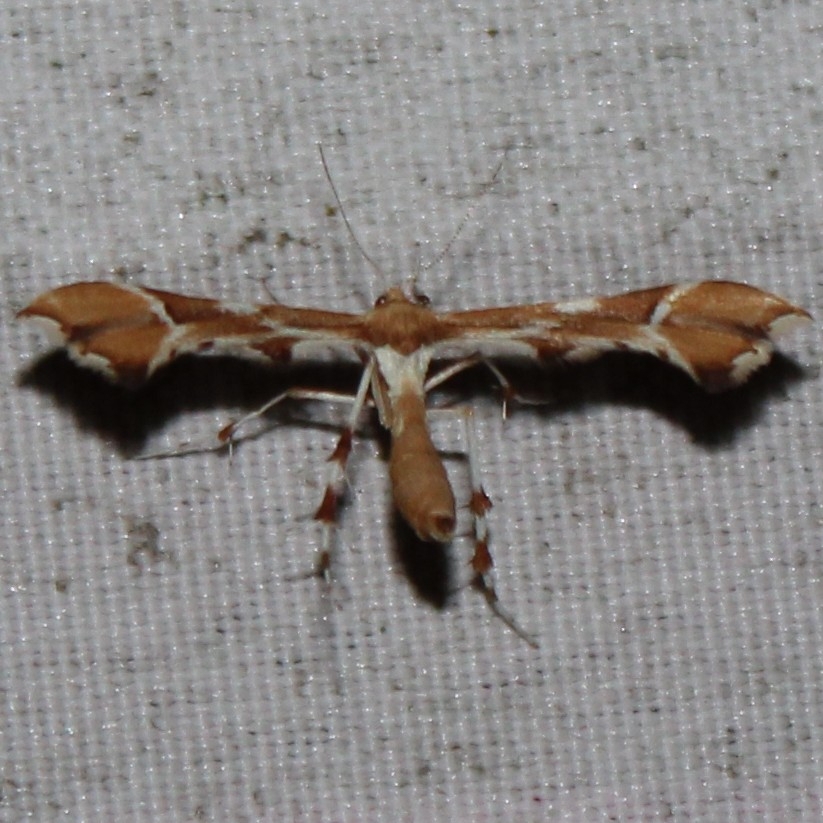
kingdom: Animalia
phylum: Arthropoda
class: Insecta
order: Lepidoptera
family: Pterophoridae
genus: Cnaemidophorus
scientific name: Cnaemidophorus rhododactyla
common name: Rose plume
